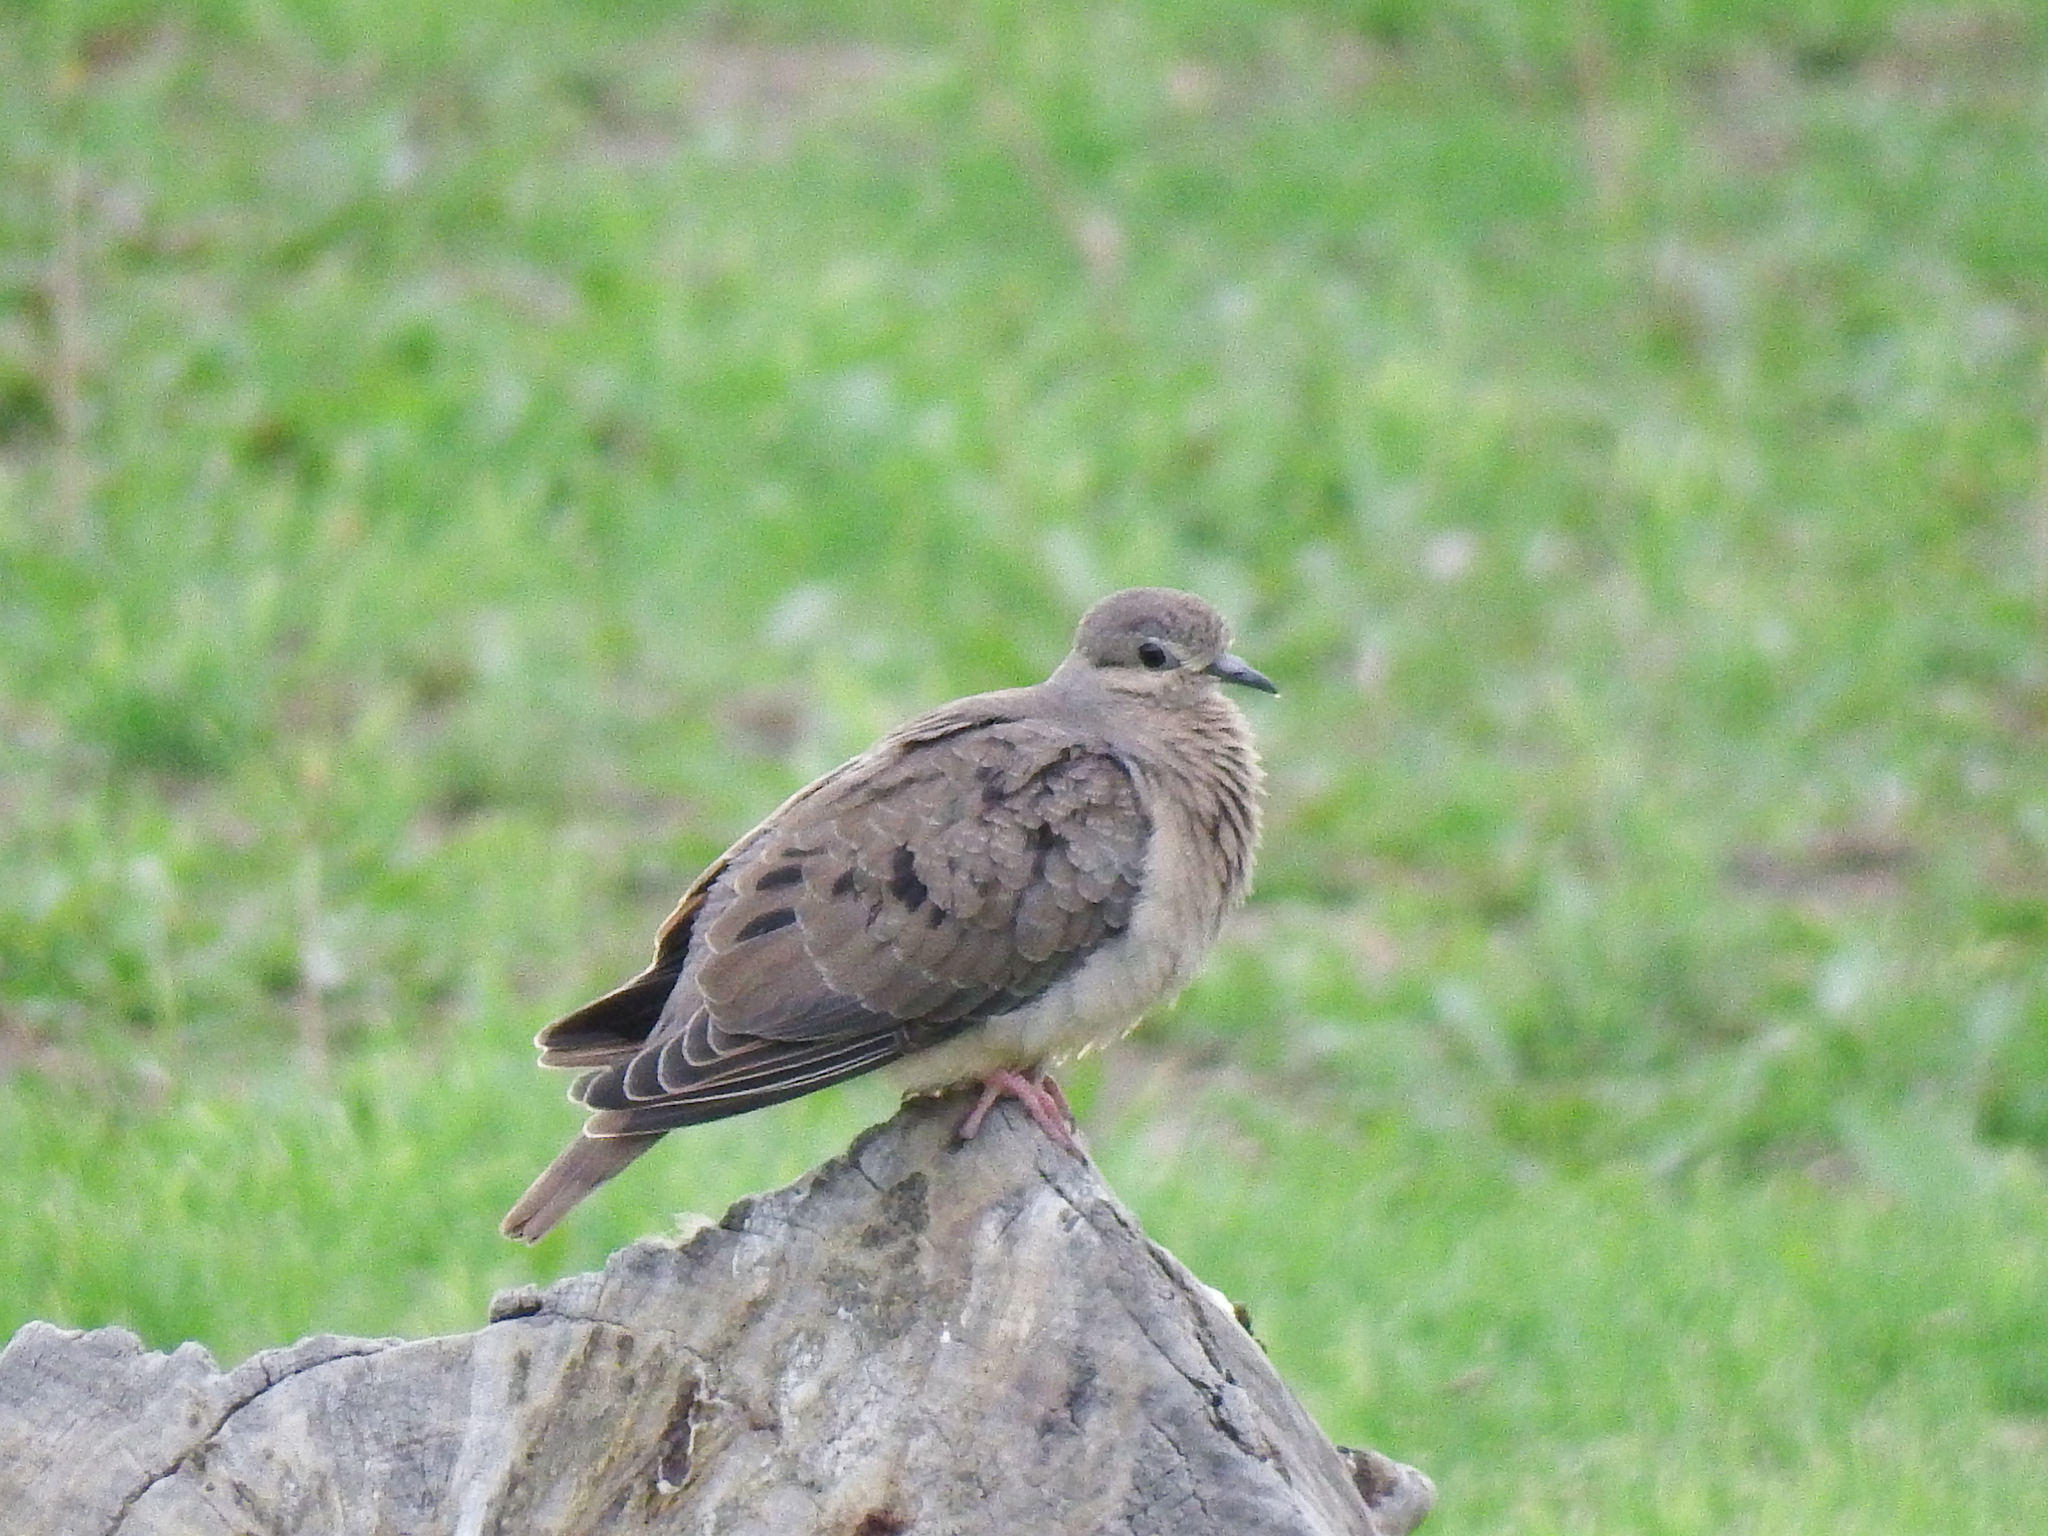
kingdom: Animalia
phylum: Chordata
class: Aves
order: Columbiformes
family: Columbidae
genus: Zenaida
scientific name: Zenaida auriculata
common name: Eared dove
